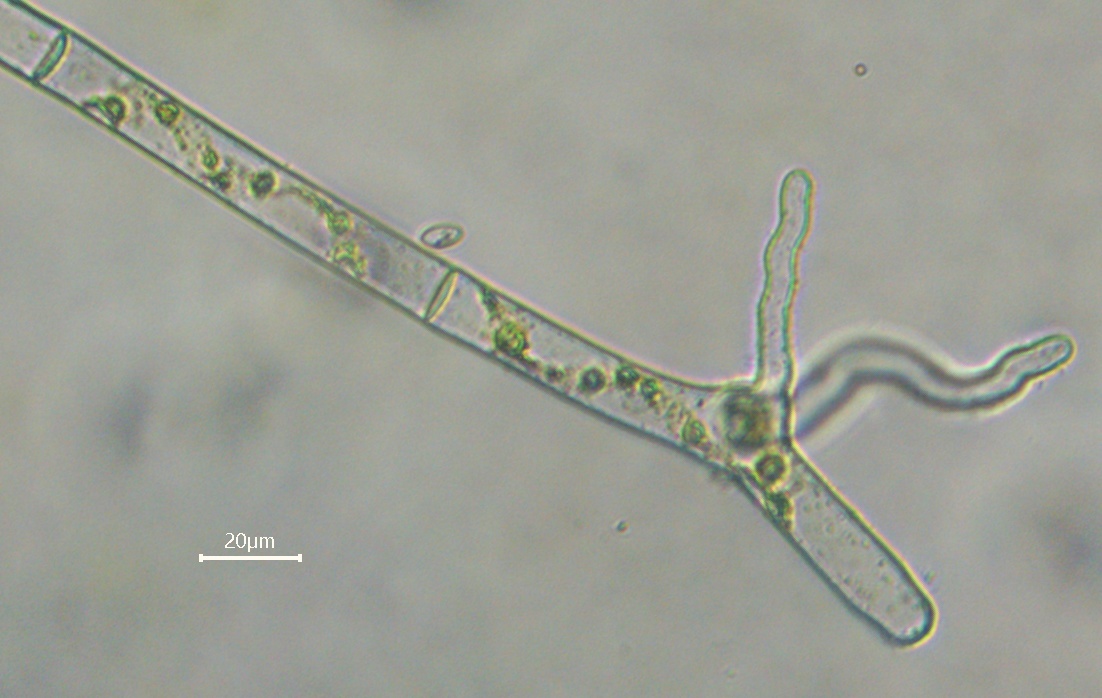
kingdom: Plantae
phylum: Charophyta
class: Zygnematophyceae
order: Zygnematales
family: Zygnemataceae
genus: Spirogyra
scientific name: Spirogyra
